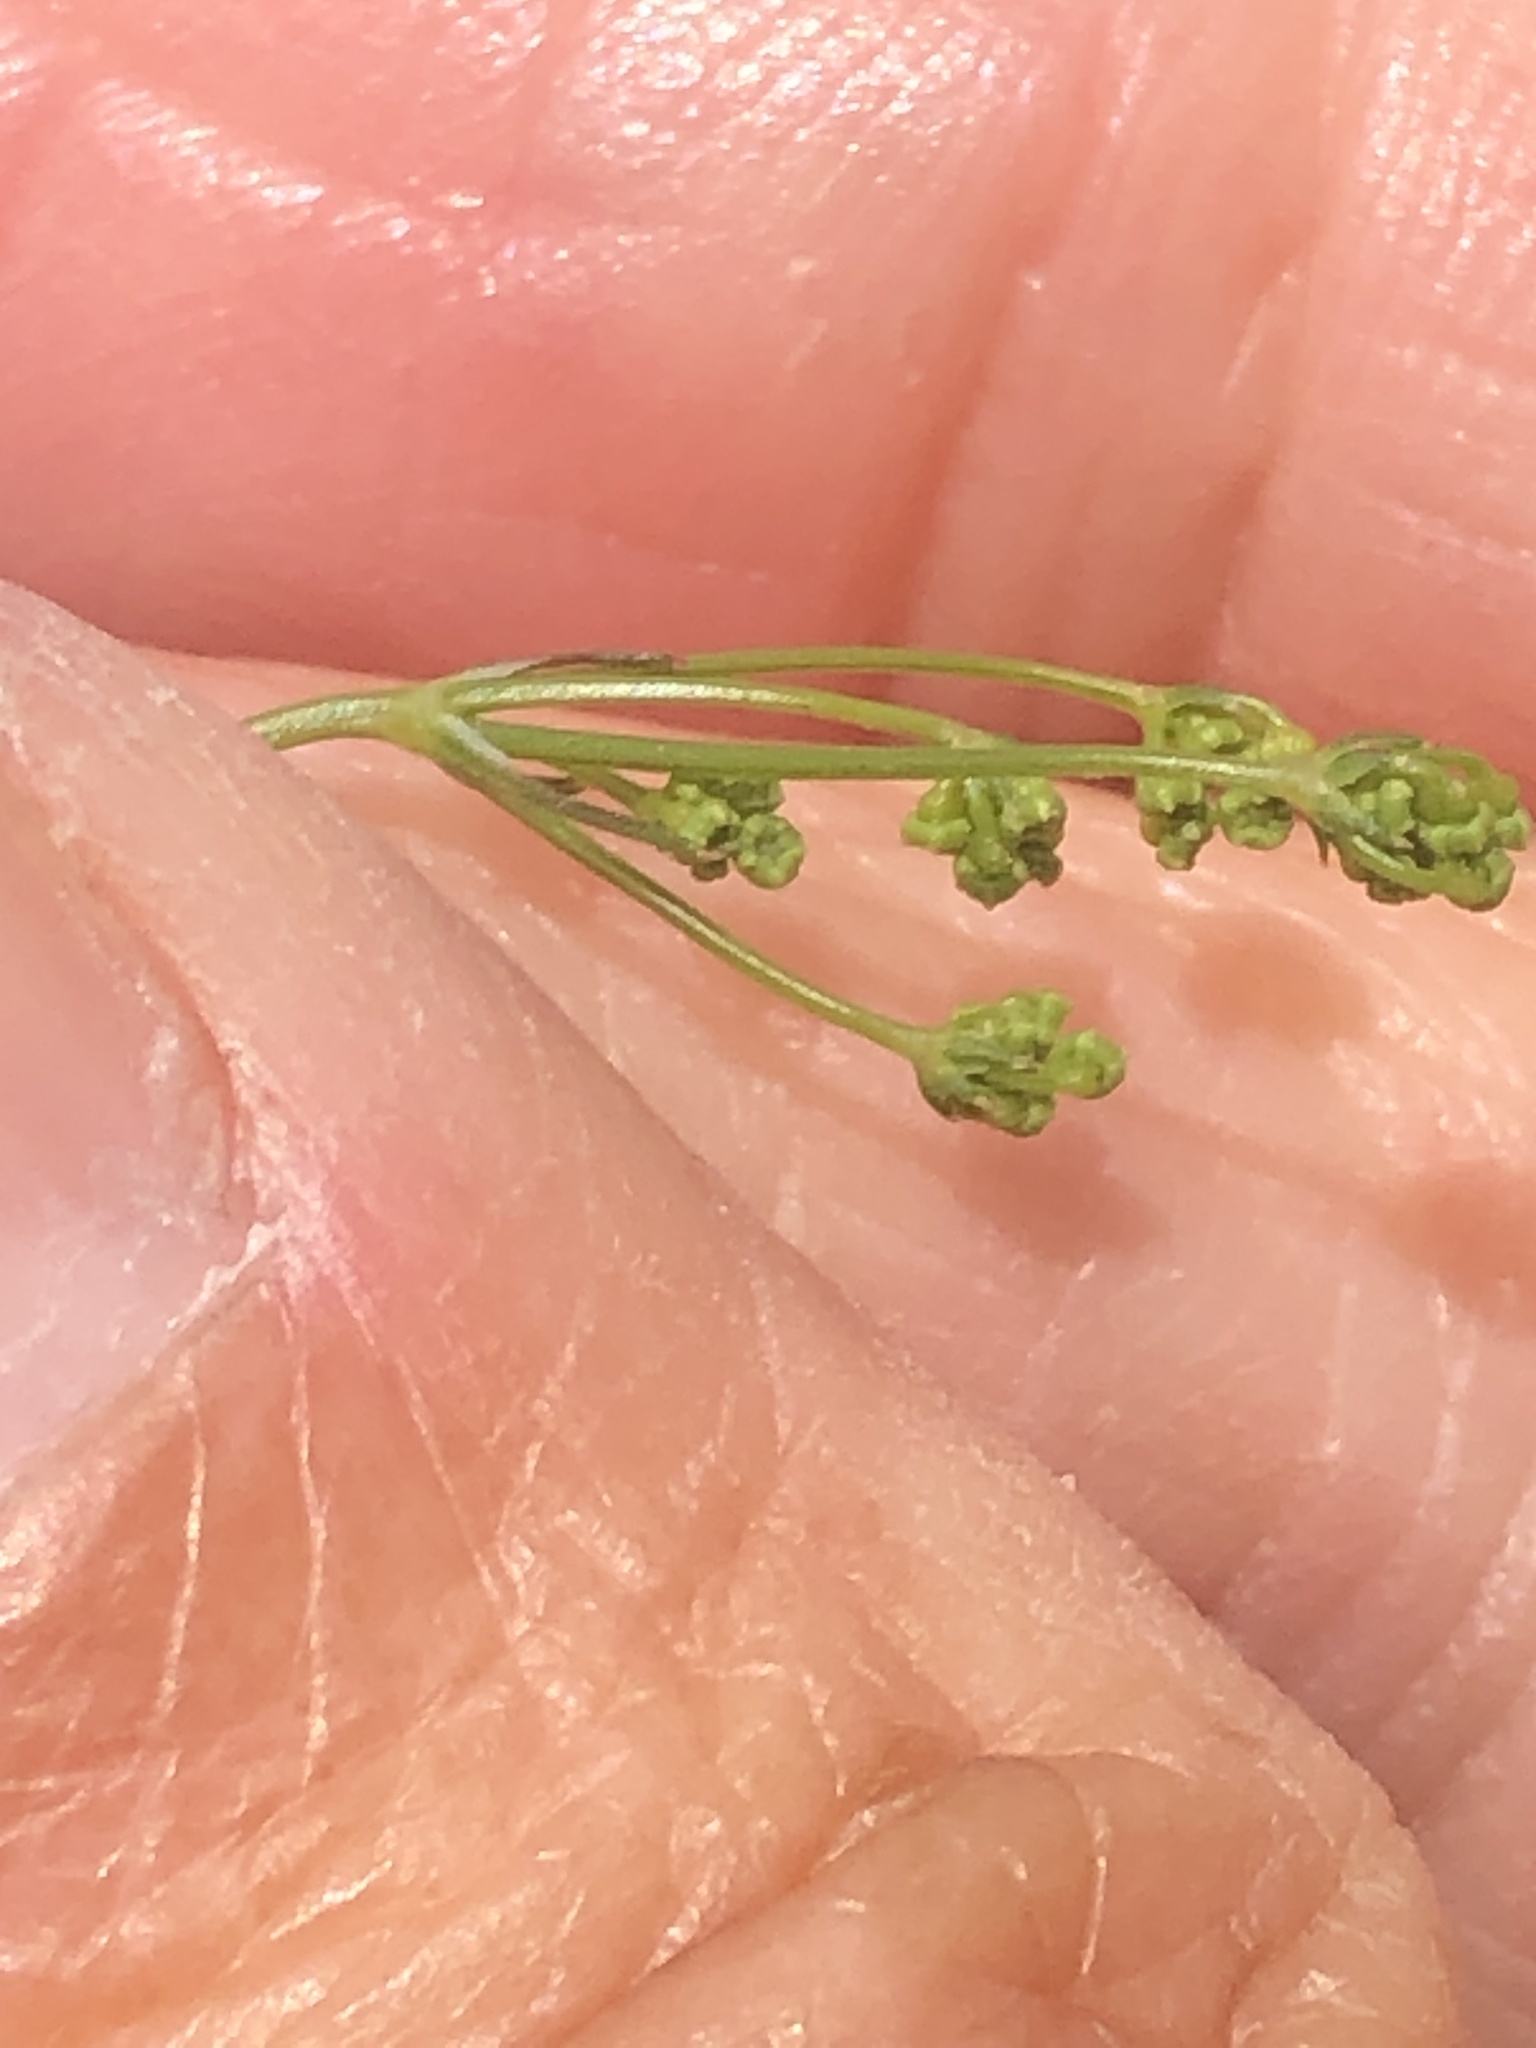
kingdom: Plantae
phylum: Tracheophyta
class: Magnoliopsida
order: Apiales
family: Apiaceae
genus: Sison
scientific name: Sison amomum
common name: Stone-parsley
